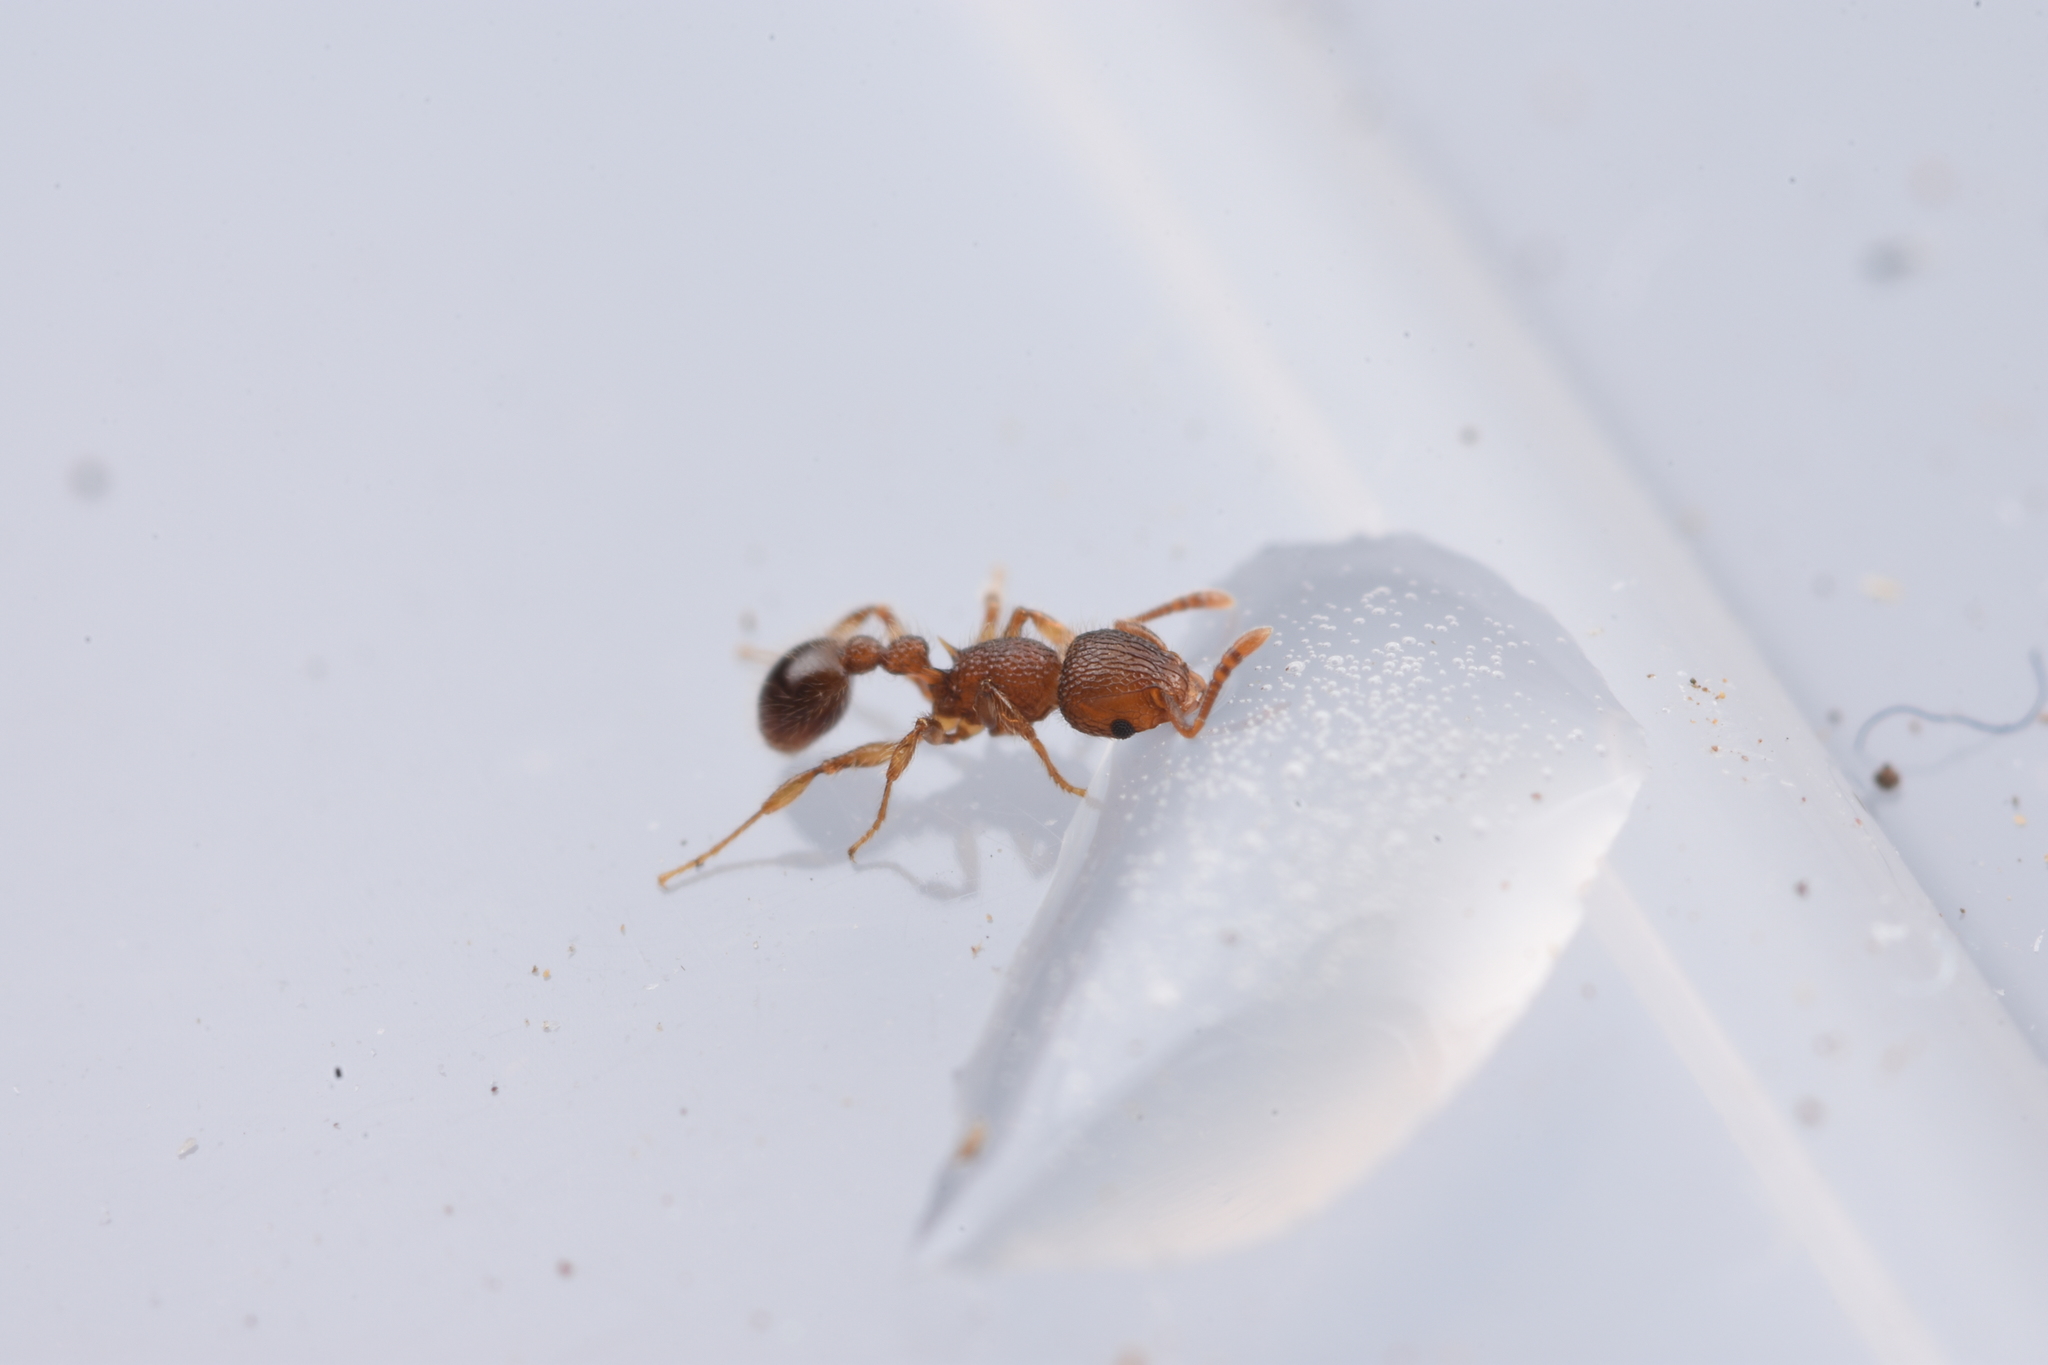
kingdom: Animalia
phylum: Arthropoda
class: Insecta
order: Hymenoptera
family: Formicidae
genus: Tetramorium
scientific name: Tetramorium lanuginosum
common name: Ant
